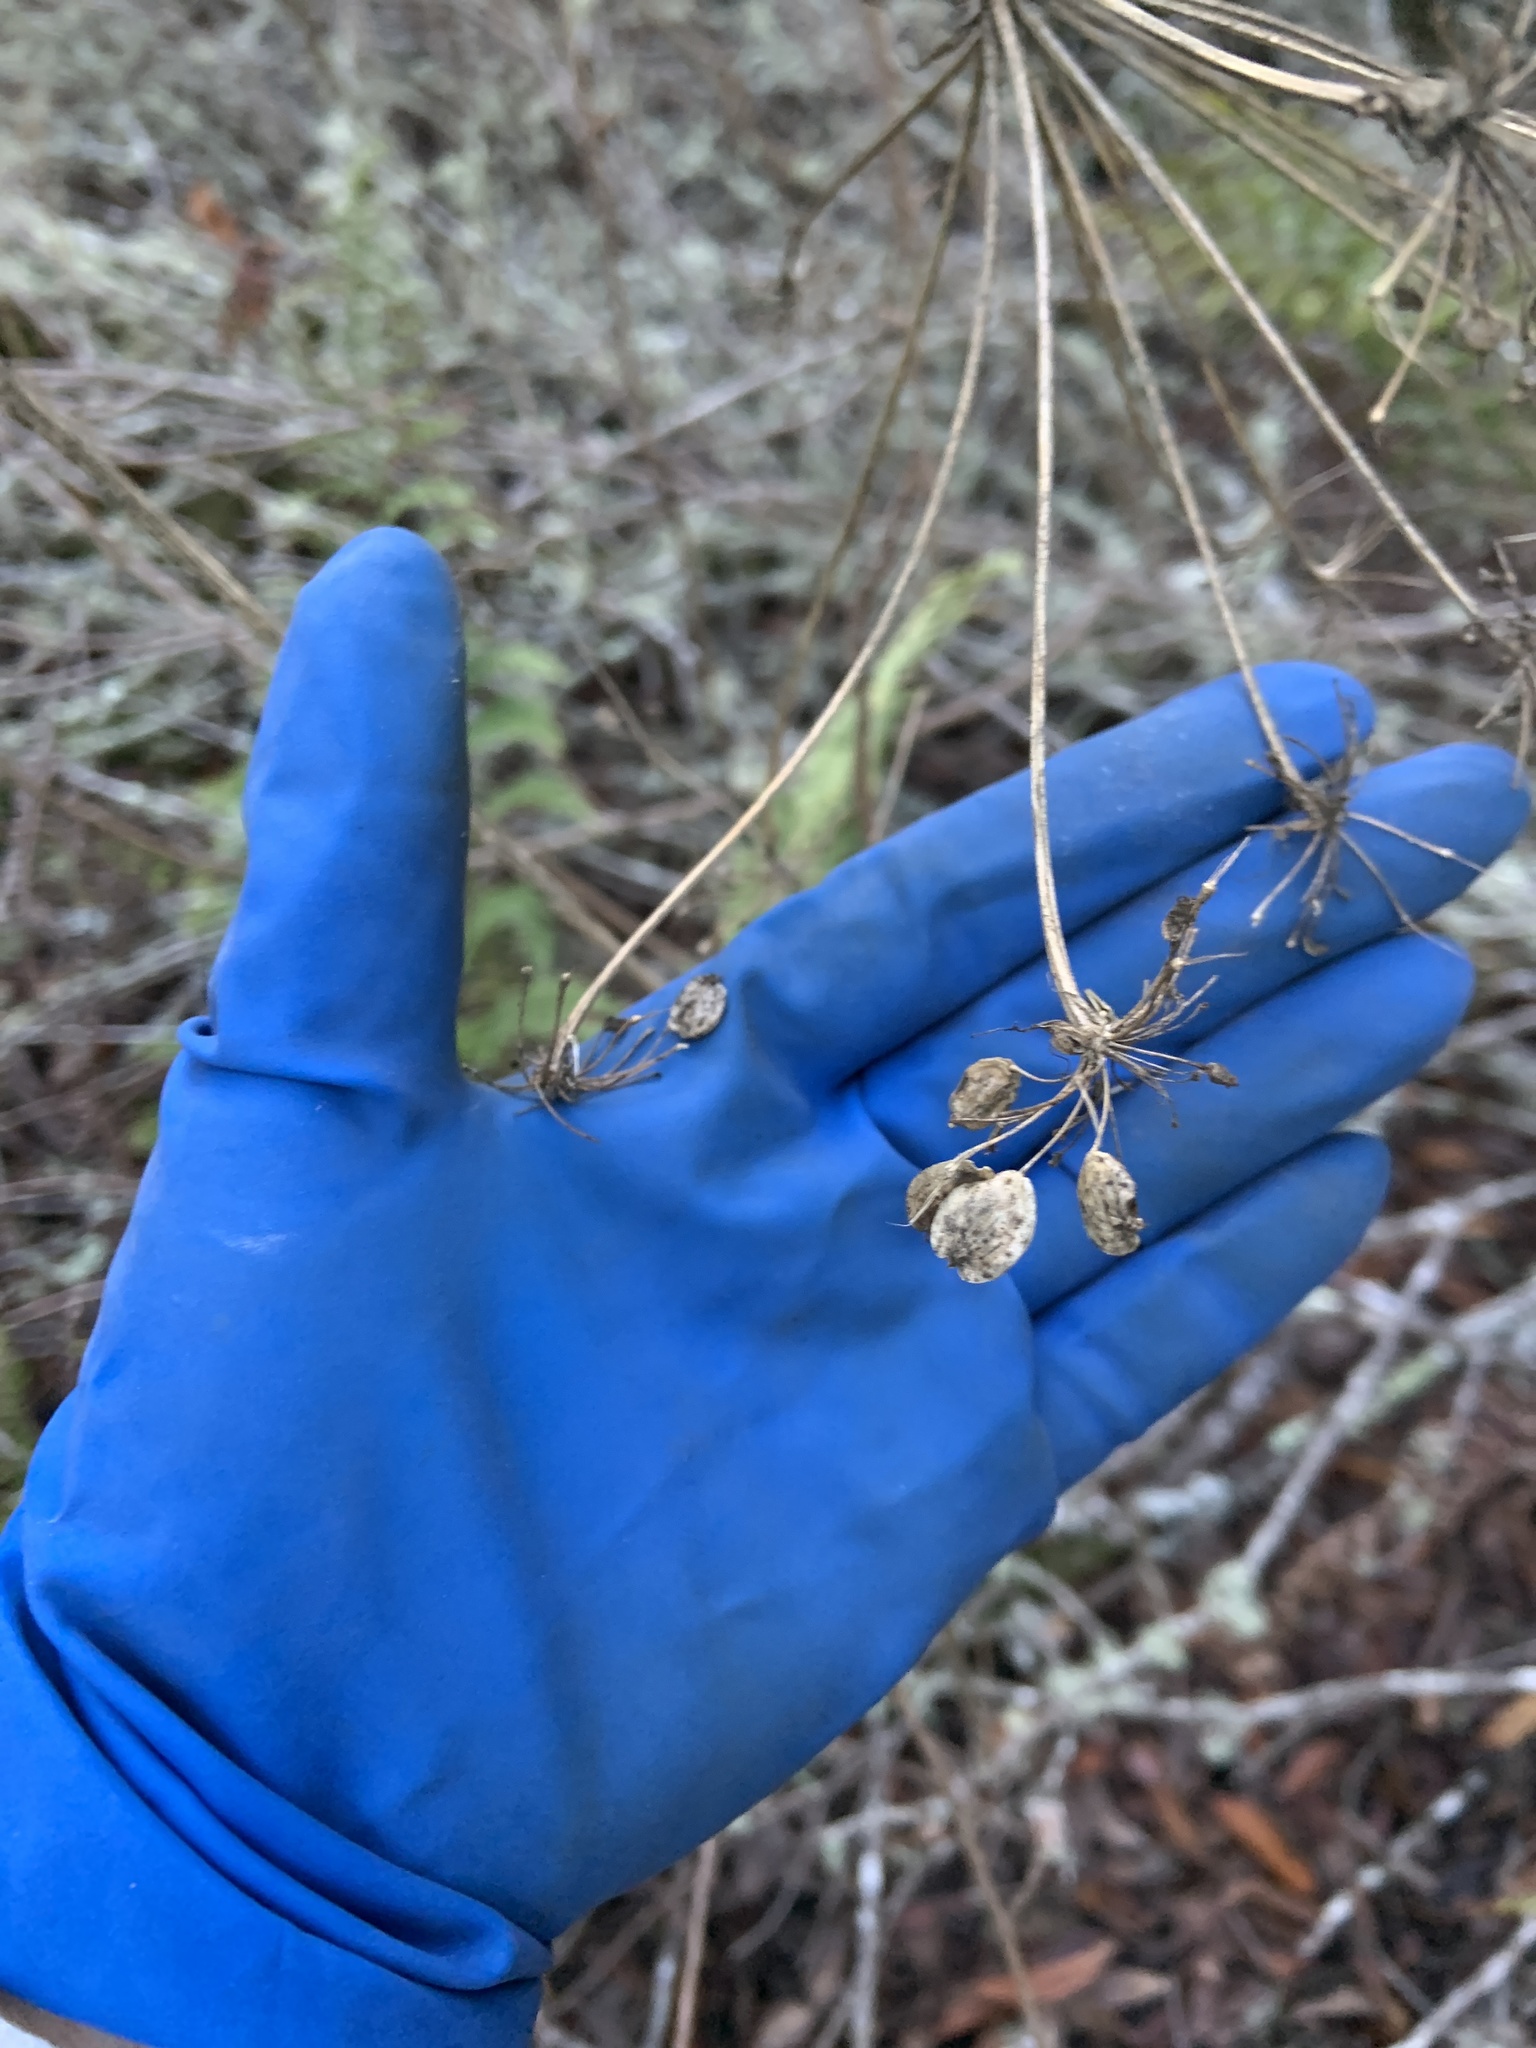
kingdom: Plantae
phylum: Tracheophyta
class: Magnoliopsida
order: Apiales
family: Apiaceae
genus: Heracleum
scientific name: Heracleum maximum
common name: American cow parsnip
